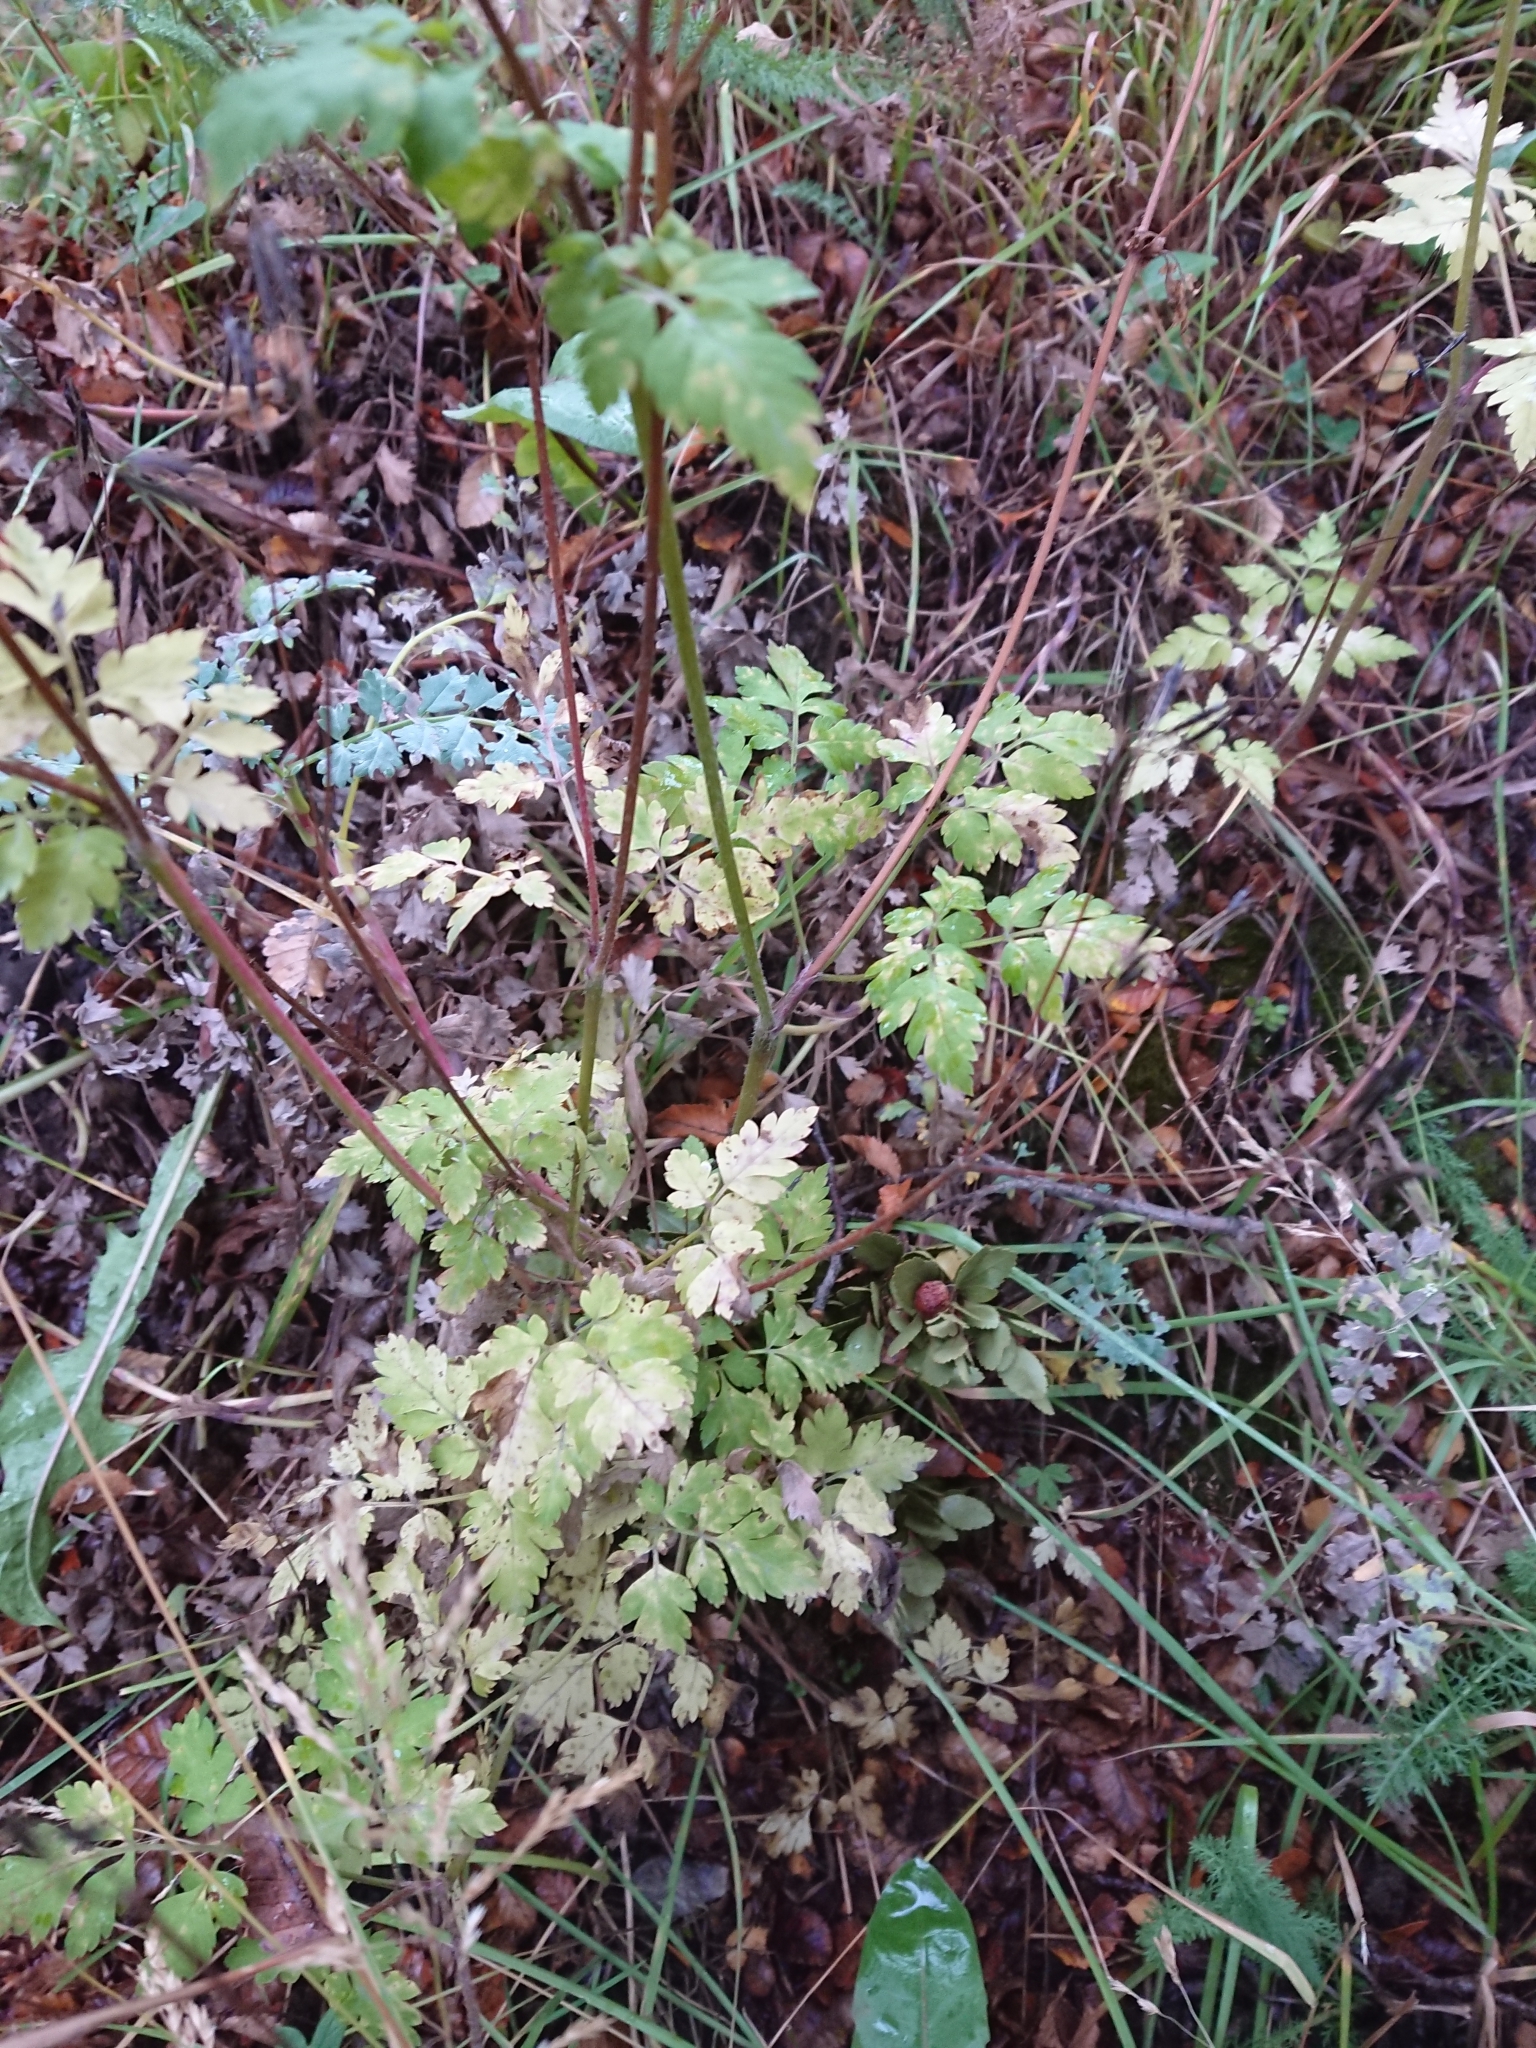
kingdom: Plantae
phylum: Tracheophyta
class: Magnoliopsida
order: Apiales
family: Apiaceae
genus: Osmorhiza
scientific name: Osmorhiza berteroi
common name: Mountain sweet cicely
